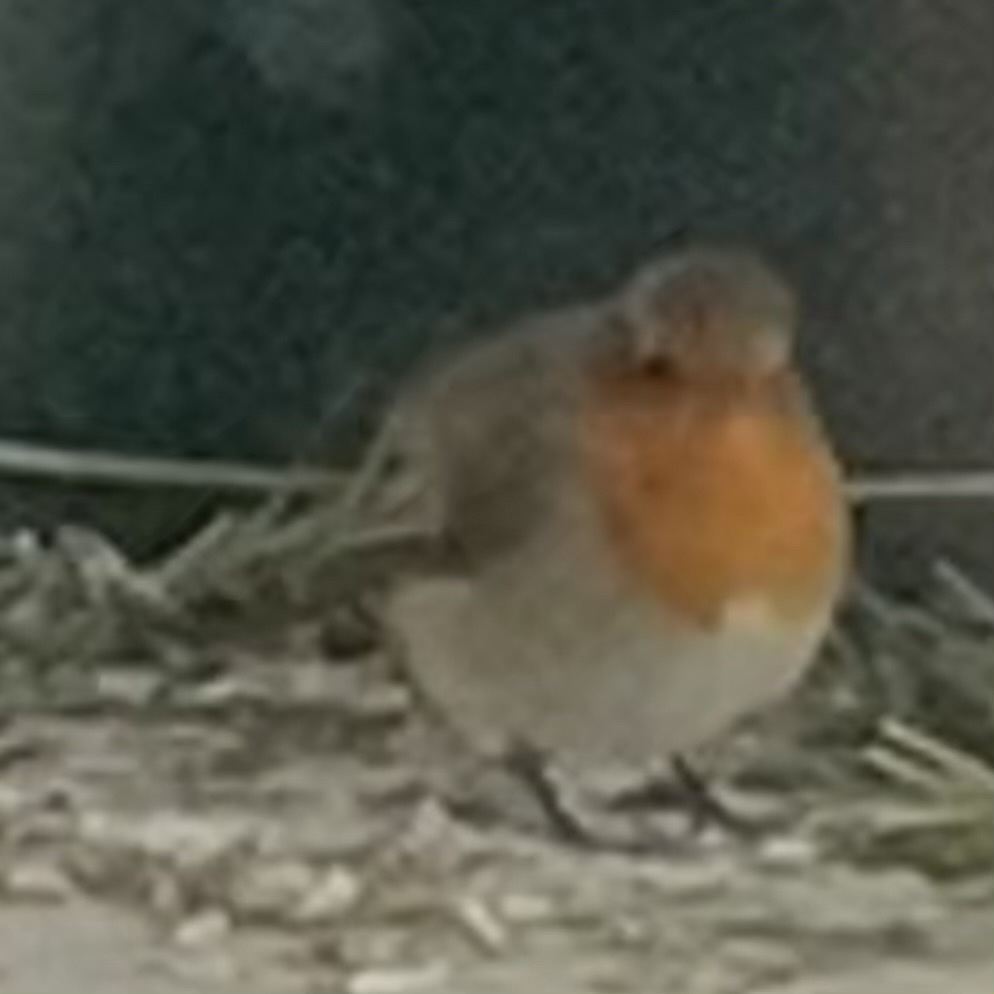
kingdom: Animalia
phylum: Chordata
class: Aves
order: Passeriformes
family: Muscicapidae
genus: Erithacus
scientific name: Erithacus rubecula
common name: European robin
